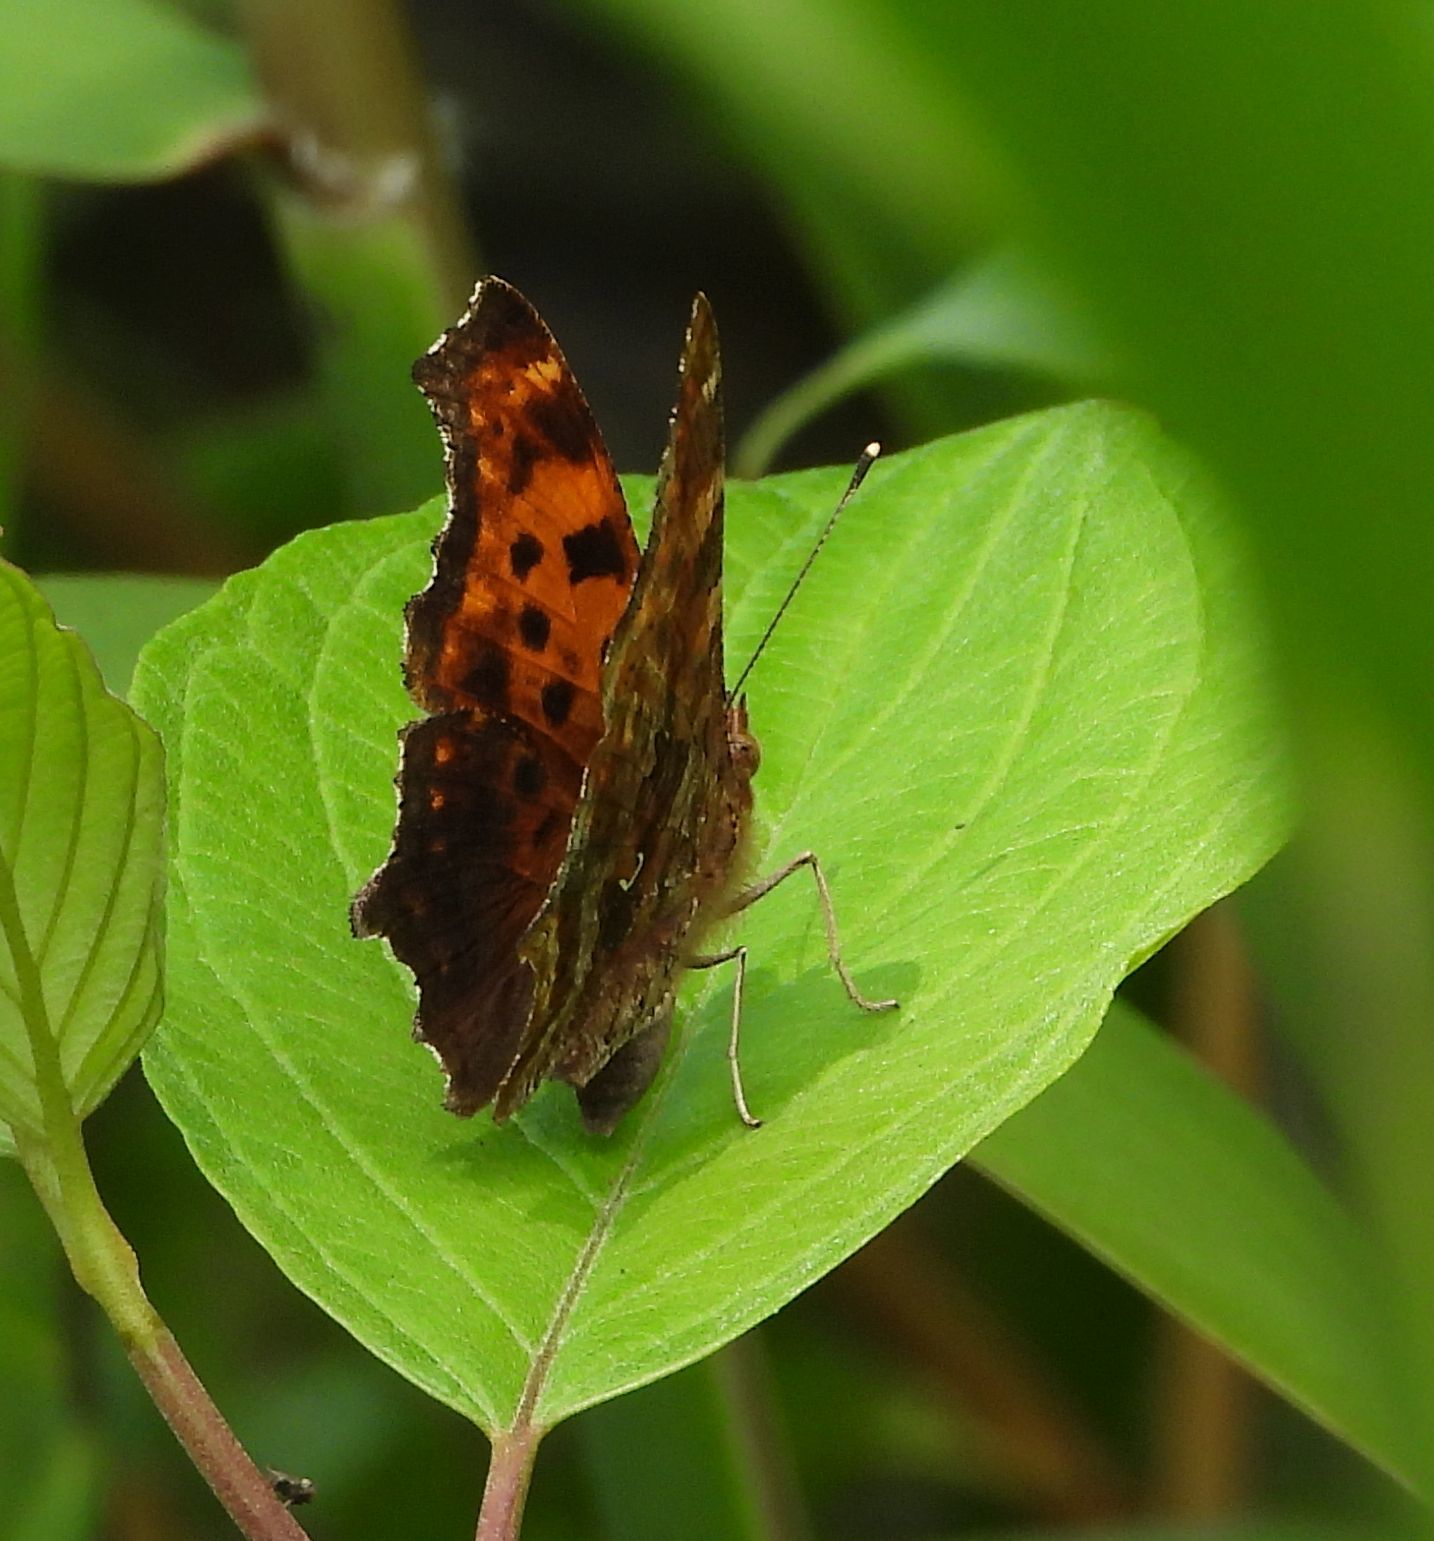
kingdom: Animalia
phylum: Arthropoda
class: Insecta
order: Lepidoptera
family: Nymphalidae
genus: Polygonia
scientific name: Polygonia comma
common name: Eastern comma
